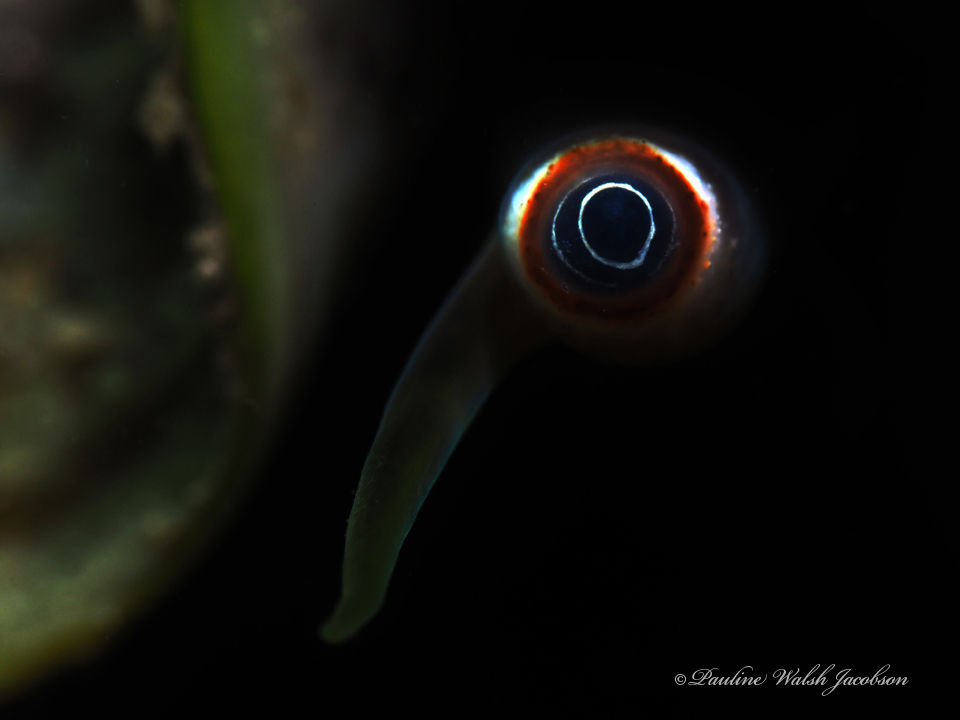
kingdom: Animalia
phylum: Mollusca
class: Gastropoda
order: Littorinimorpha
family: Strombidae
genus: Strombus
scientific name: Strombus alatus
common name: Florida fighting conch
